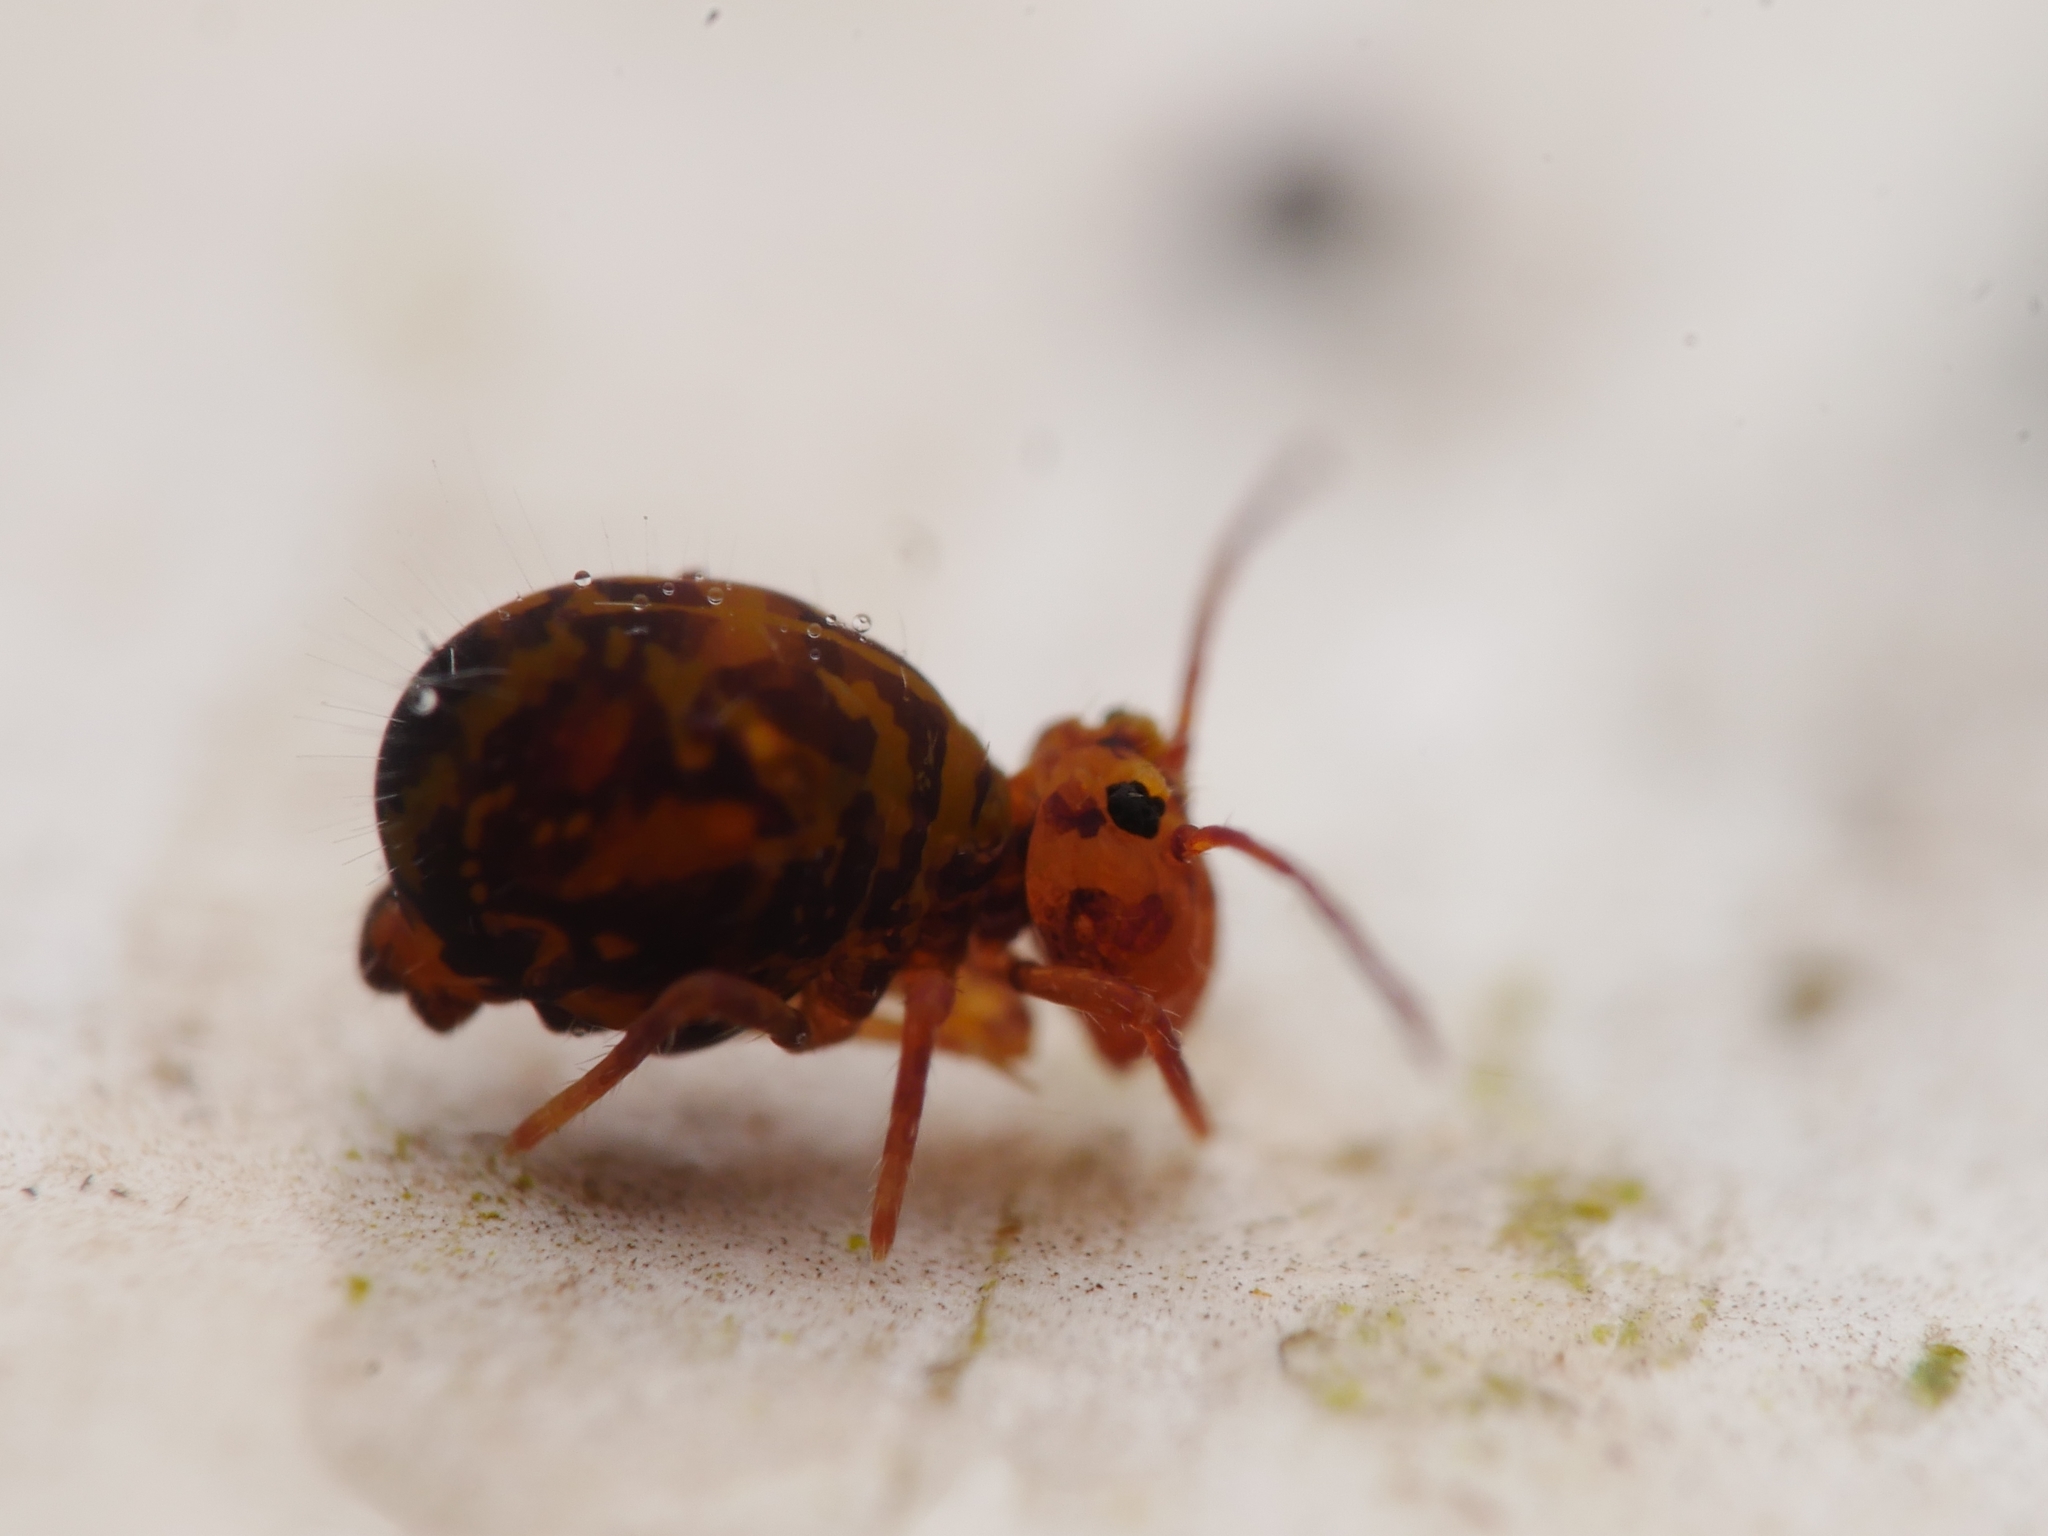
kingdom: Animalia
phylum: Arthropoda
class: Collembola
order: Symphypleona
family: Dicyrtomidae
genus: Dicyrtomina
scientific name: Dicyrtomina ornata
